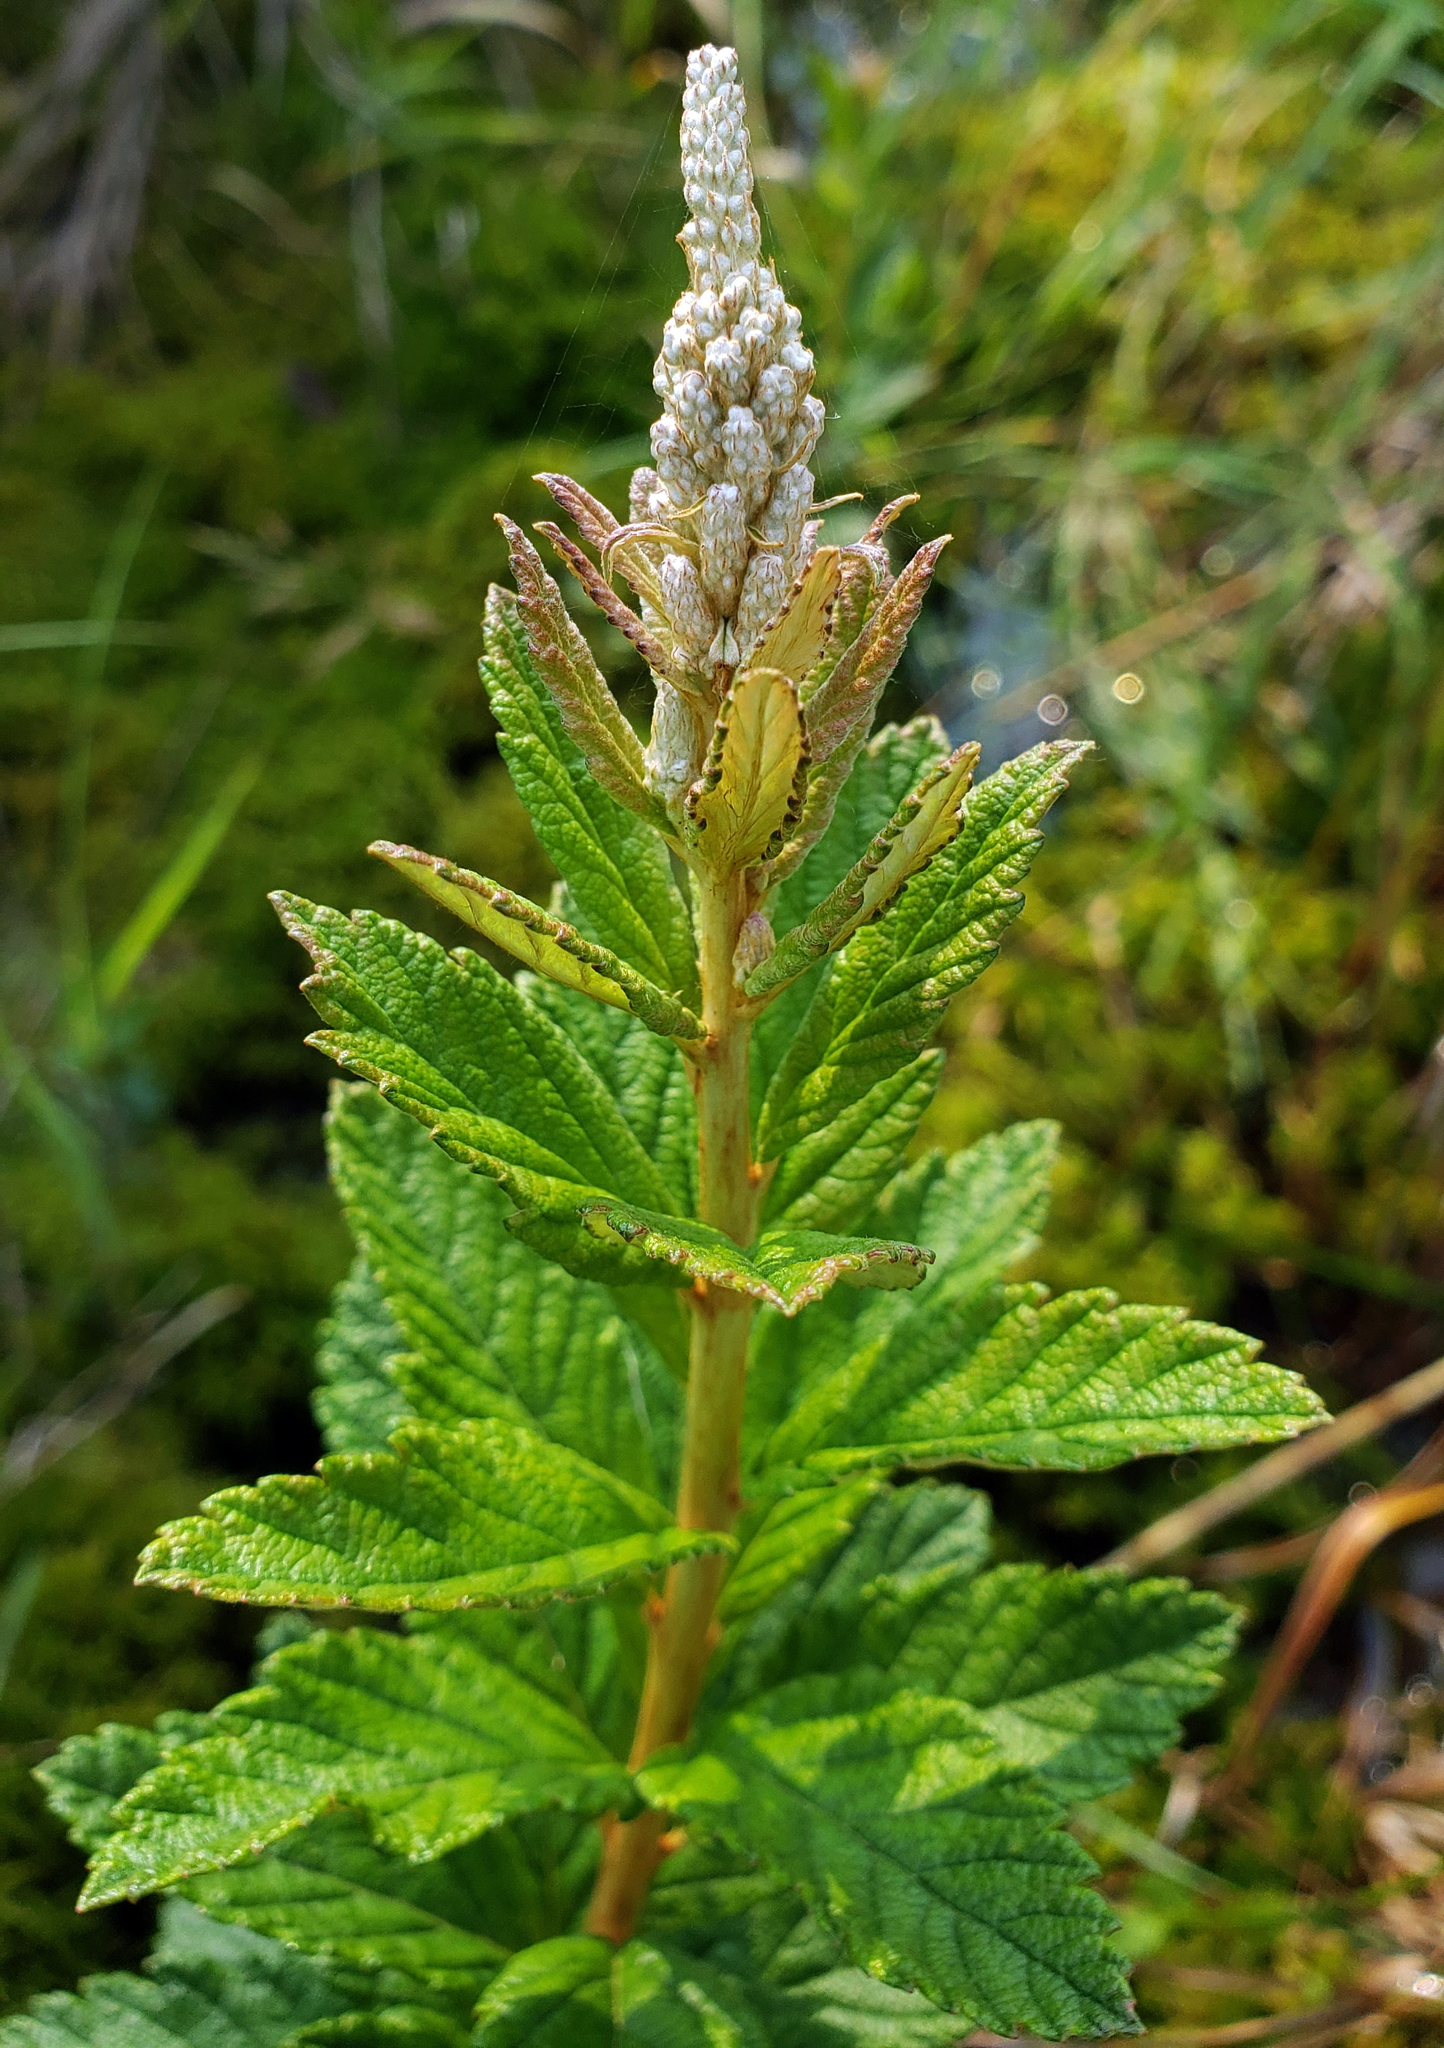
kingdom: Plantae
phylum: Tracheophyta
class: Magnoliopsida
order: Rosales
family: Rosaceae
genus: Spiraea
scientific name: Spiraea tomentosa
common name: Hardhack
